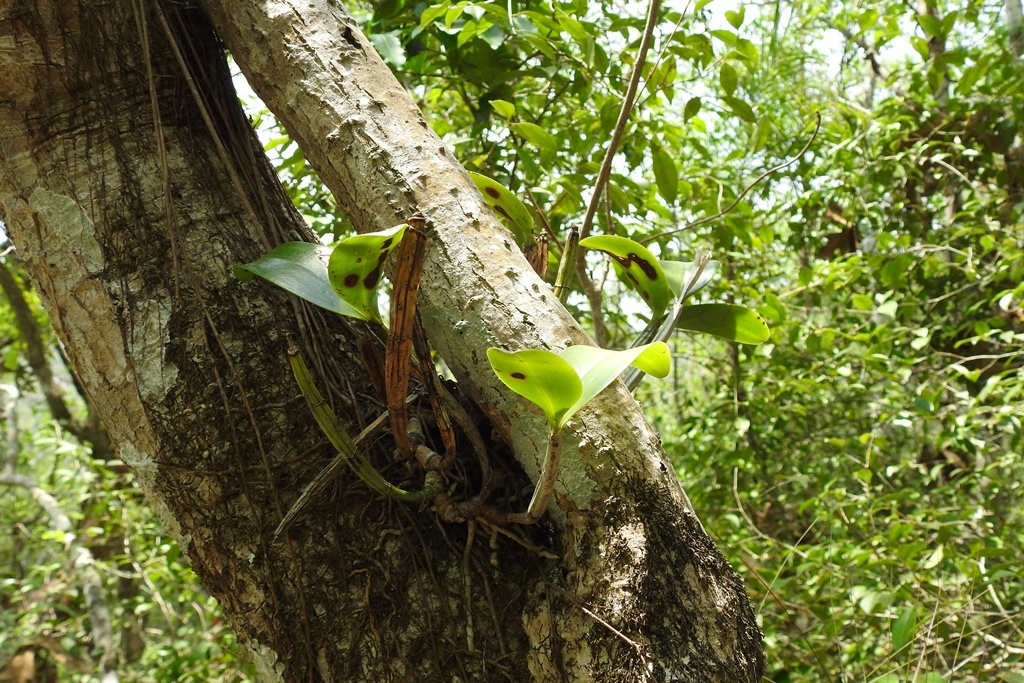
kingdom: Plantae
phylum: Tracheophyta
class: Liliopsida
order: Asparagales
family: Orchidaceae
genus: Guarianthe
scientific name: Guarianthe aurantiaca
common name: Orange cattleya
